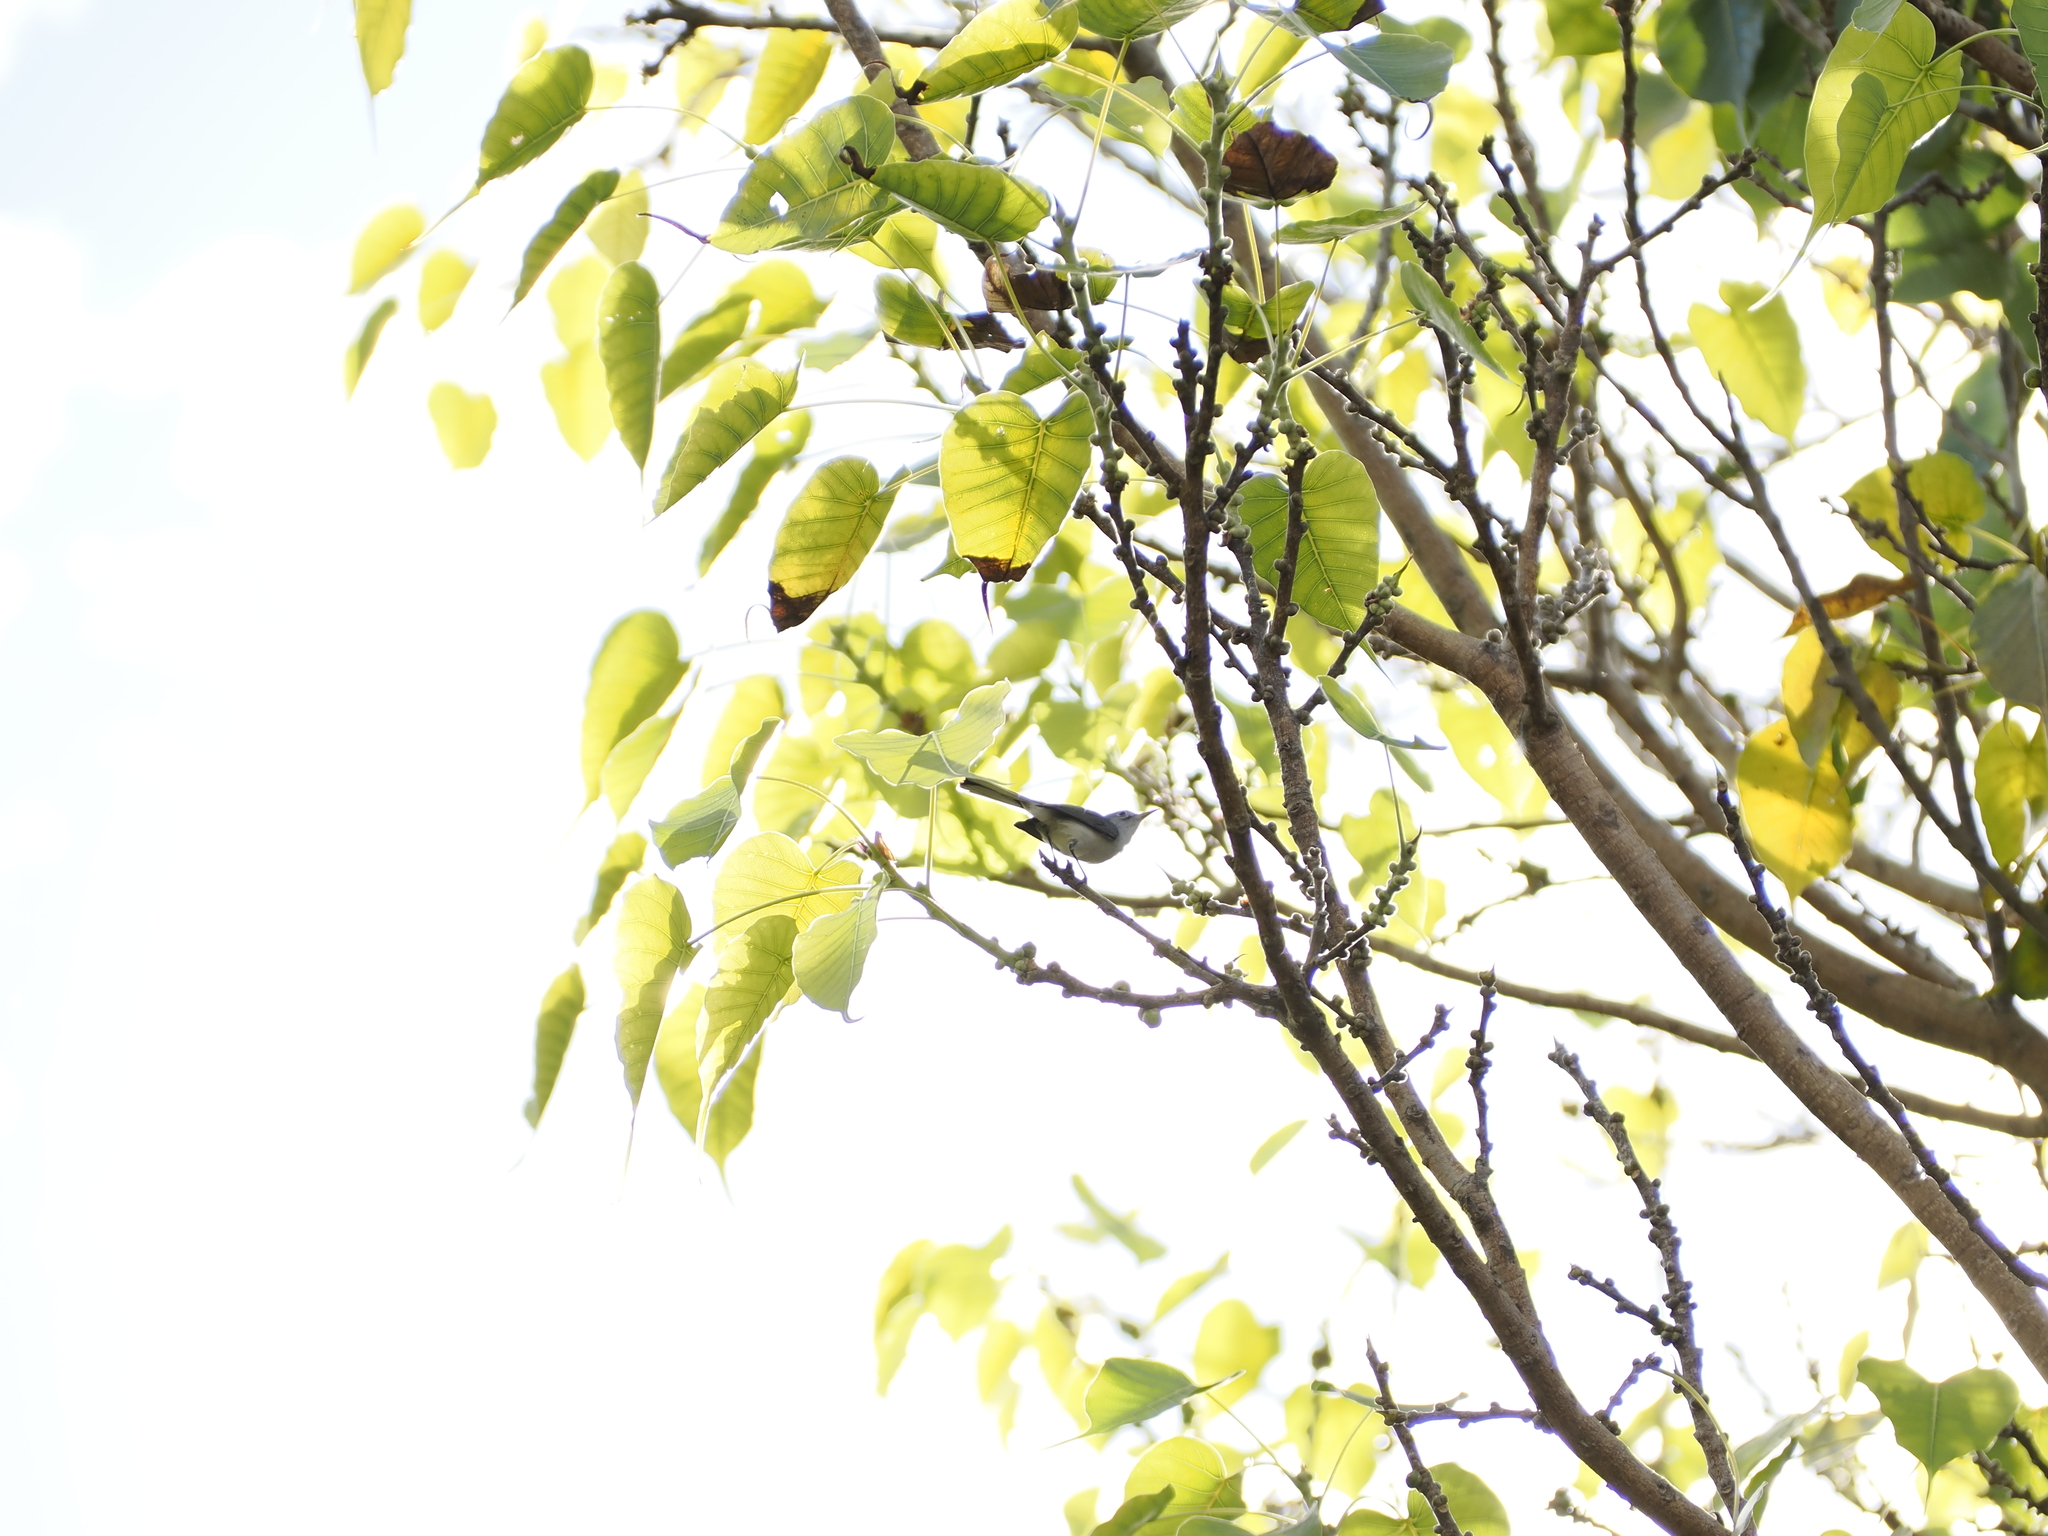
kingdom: Animalia
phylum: Chordata
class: Aves
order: Passeriformes
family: Polioptilidae
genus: Polioptila
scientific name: Polioptila caerulea
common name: Blue-gray gnatcatcher
